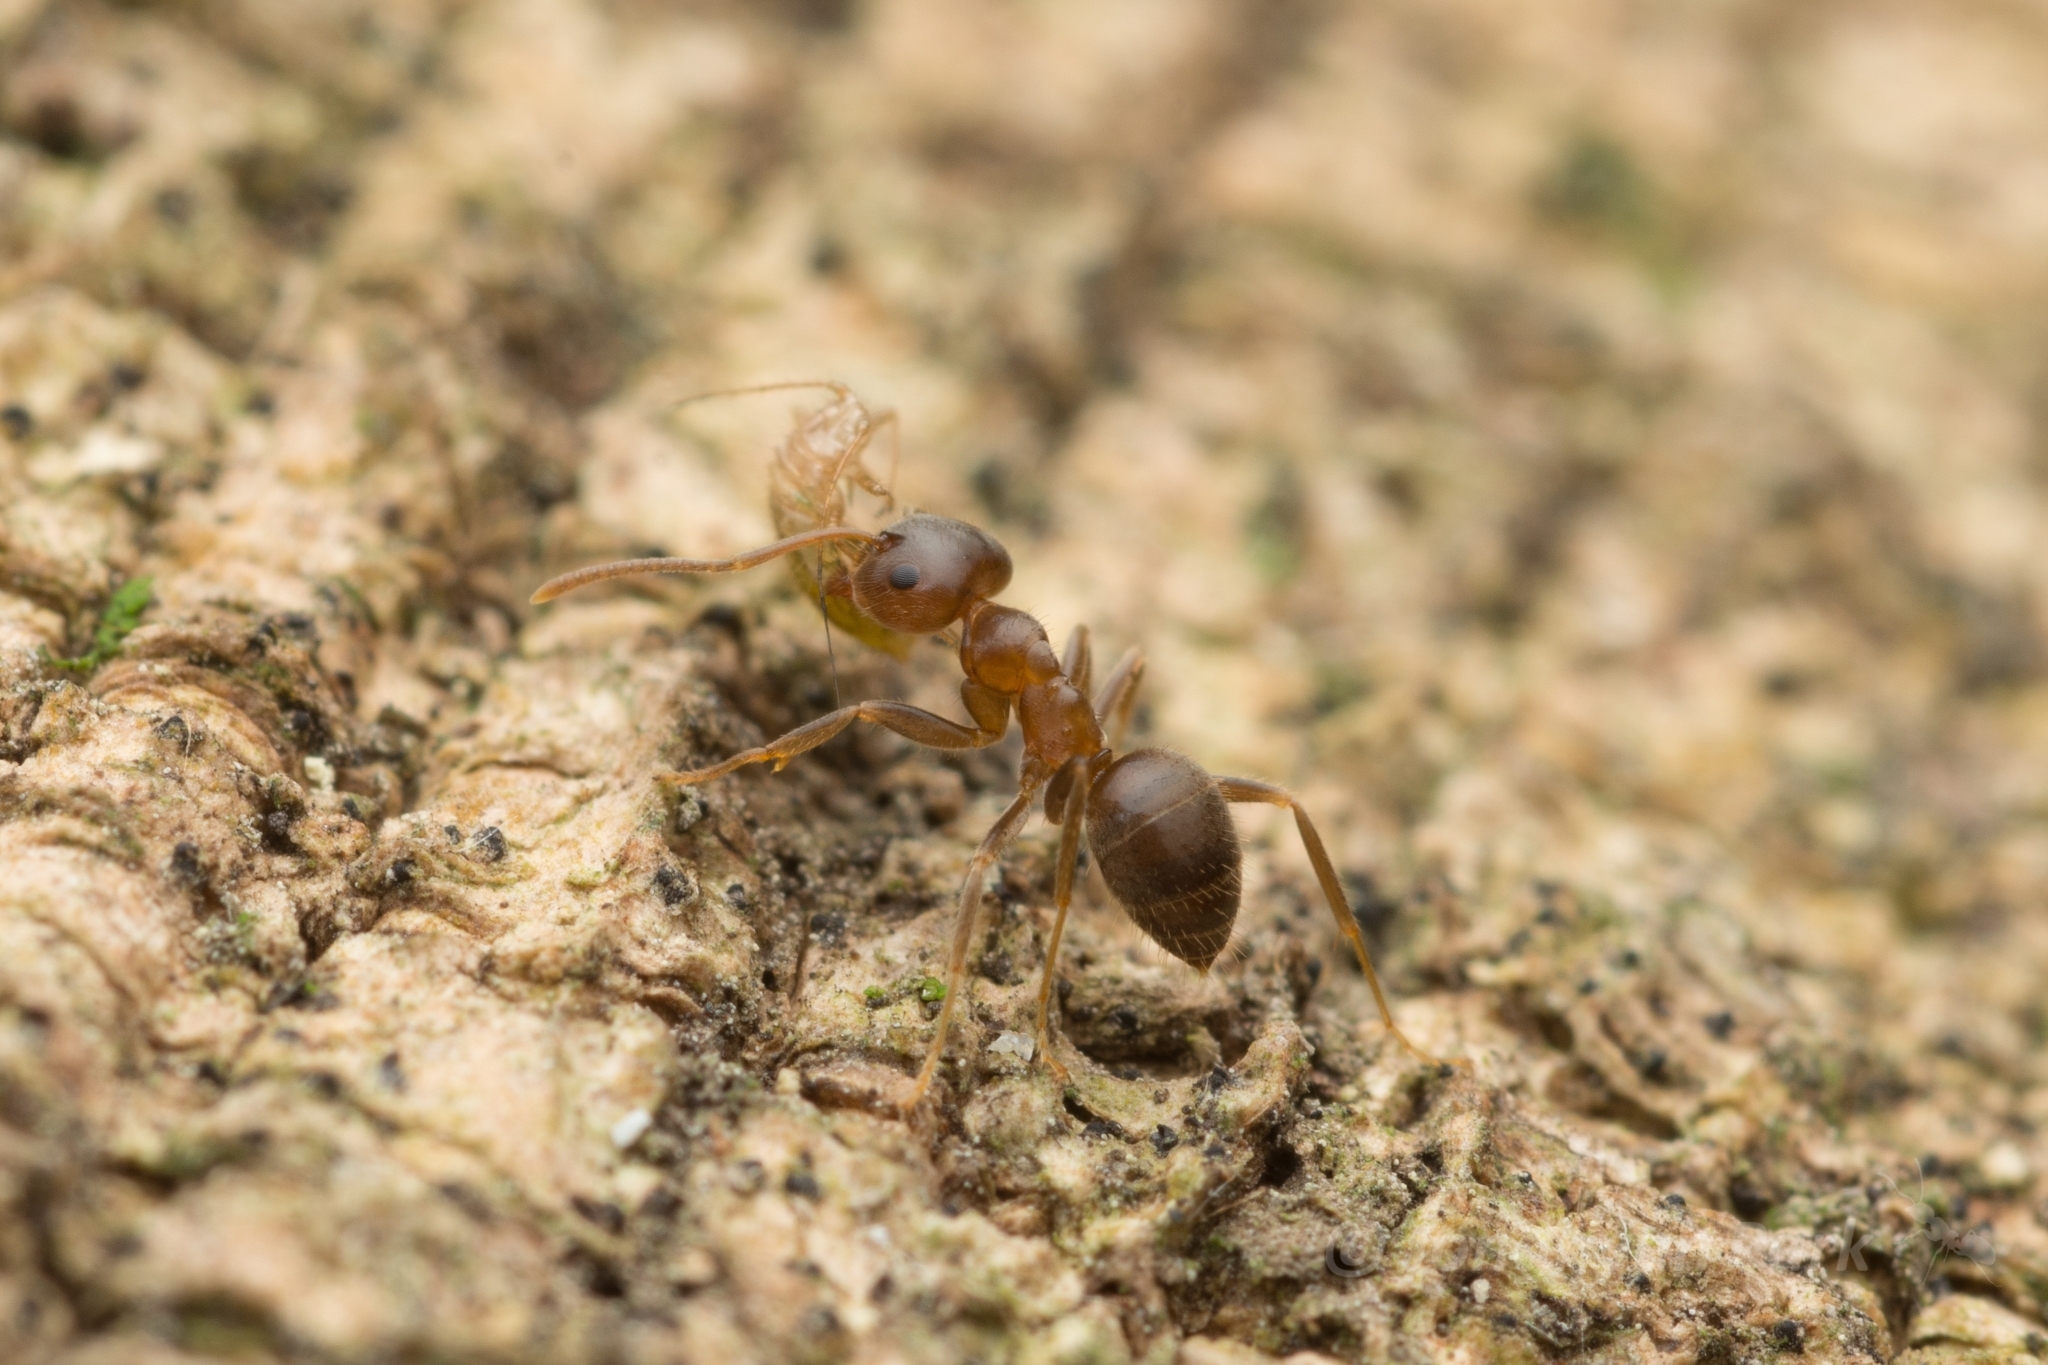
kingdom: Animalia
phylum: Arthropoda
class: Insecta
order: Hymenoptera
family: Formicidae
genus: Lasius
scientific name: Lasius hayashi
